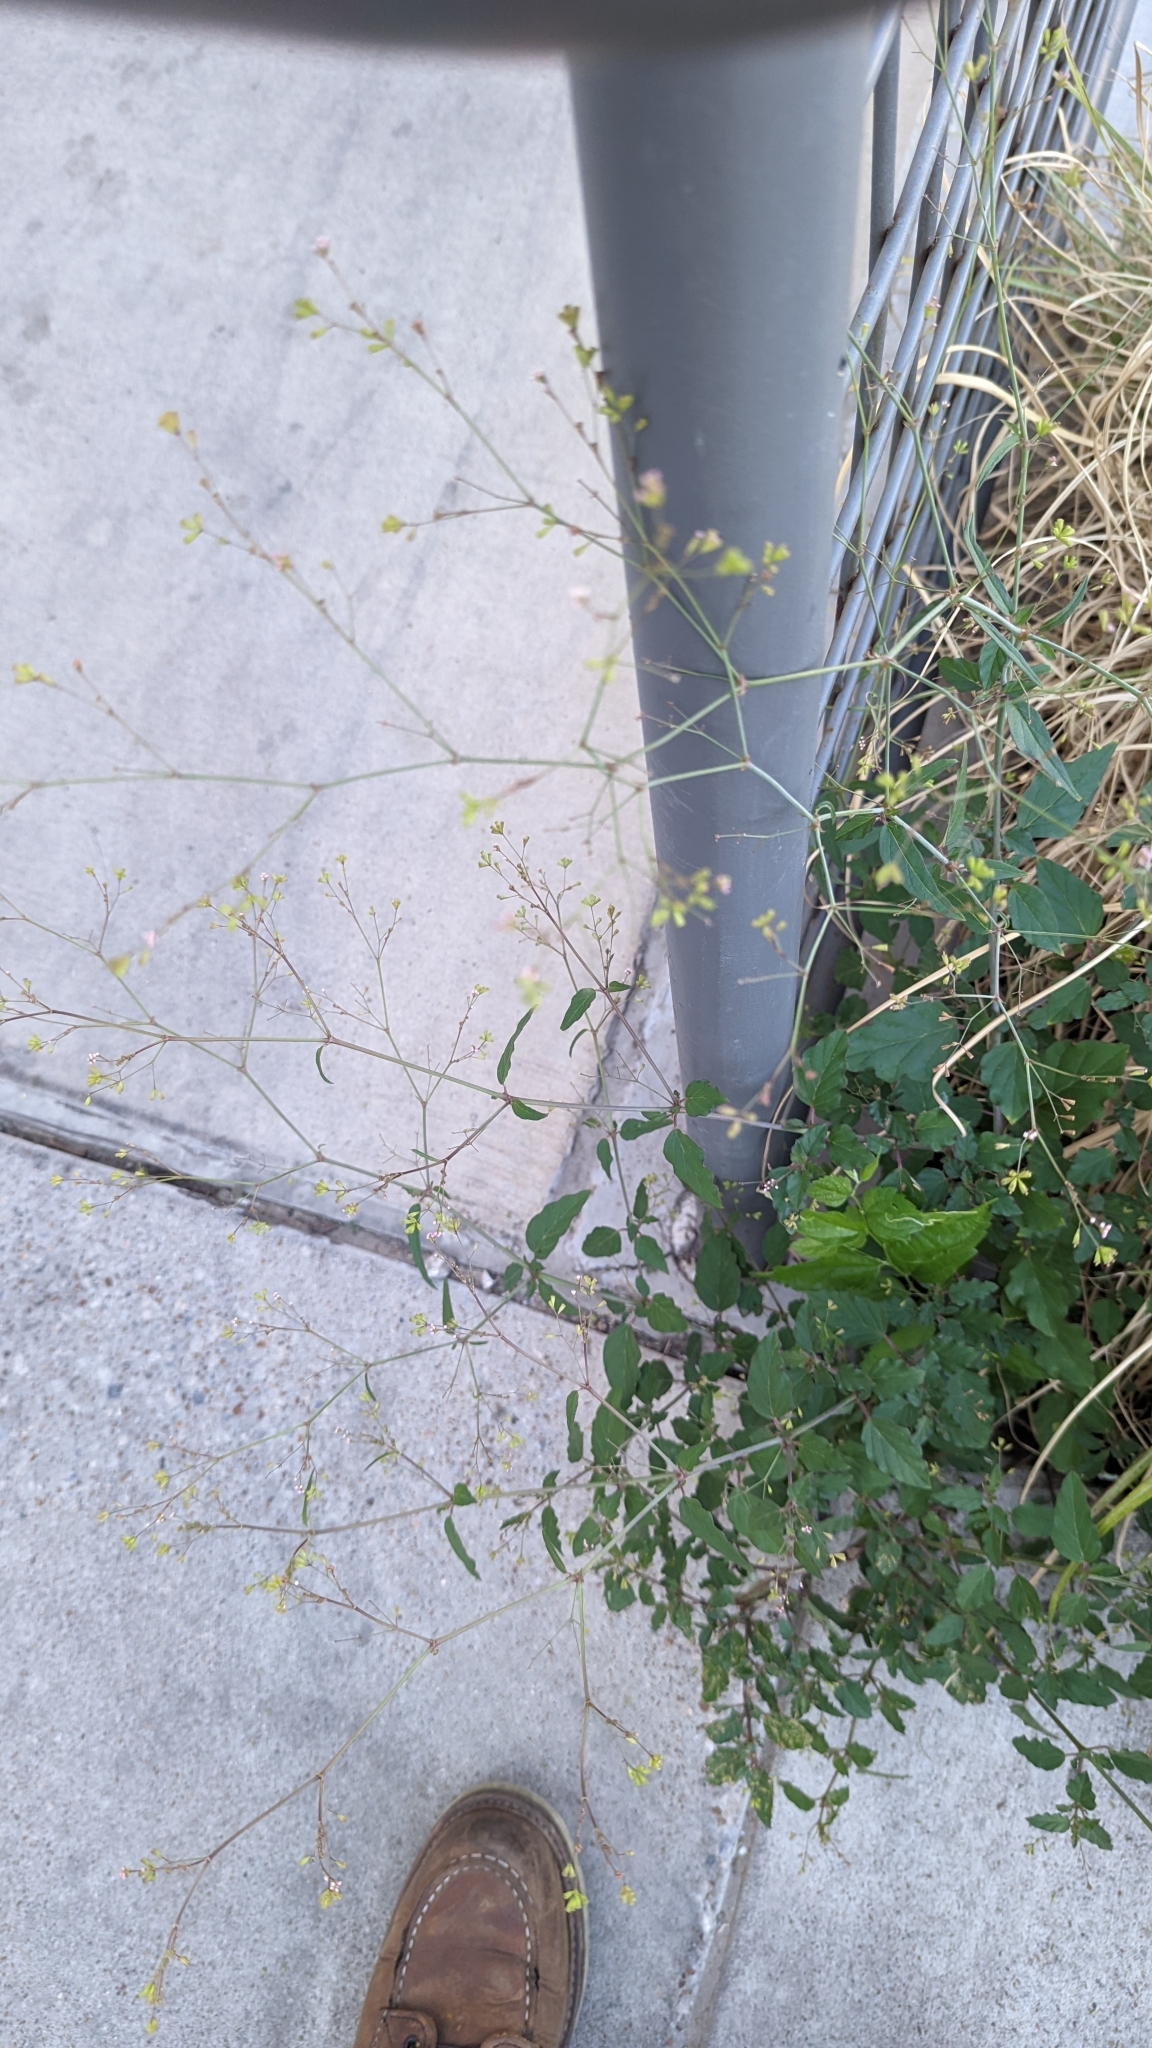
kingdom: Plantae
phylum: Tracheophyta
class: Magnoliopsida
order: Caryophyllales
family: Nyctaginaceae
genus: Boerhavia
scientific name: Boerhavia erecta
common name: Erect spiderling
